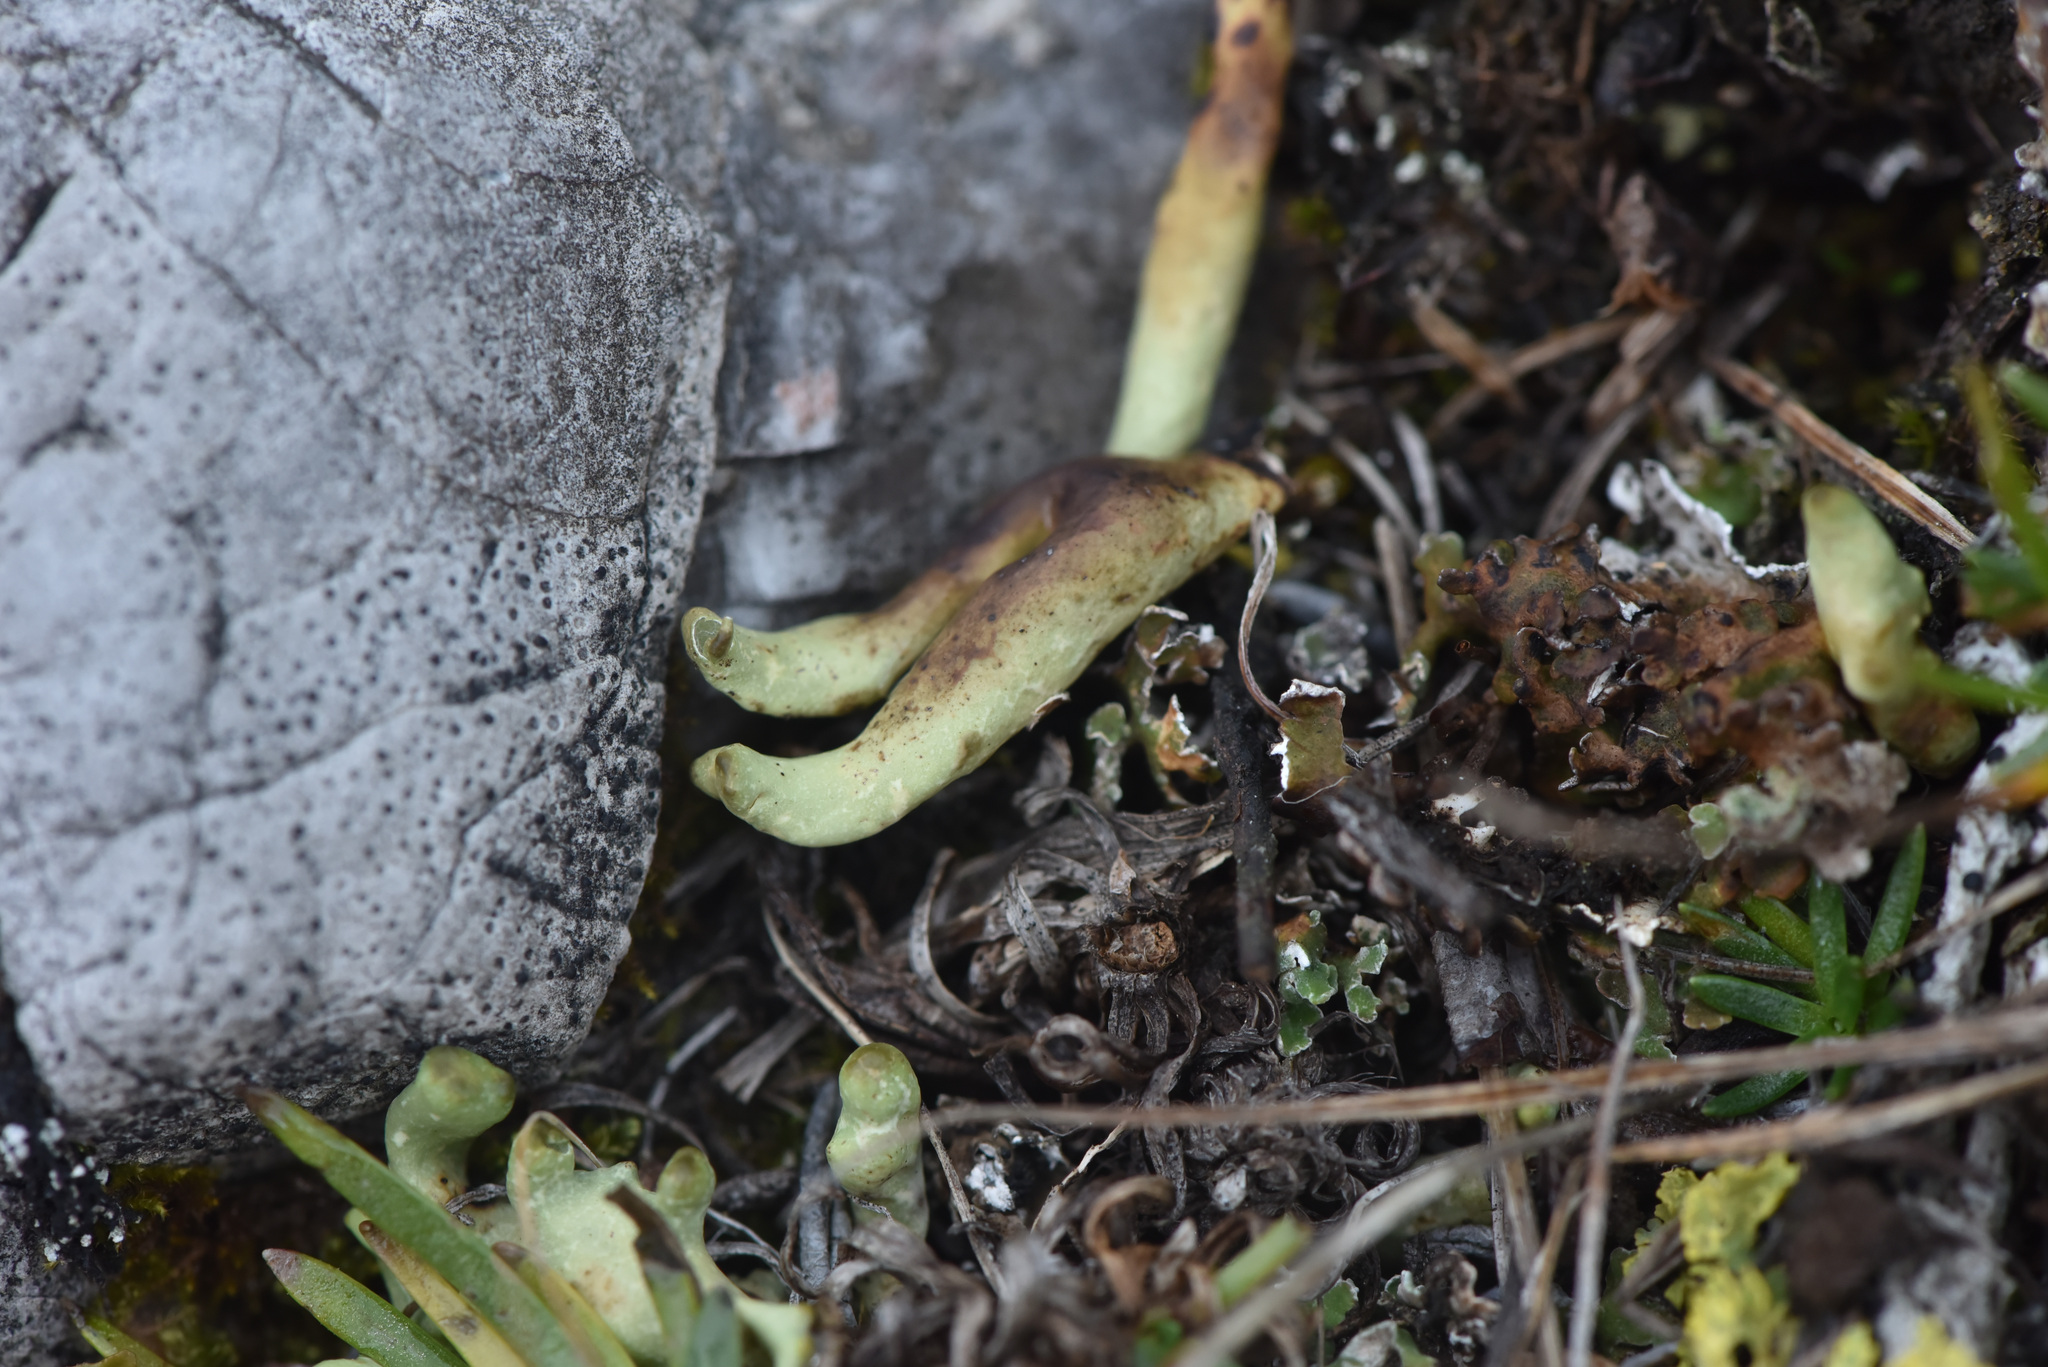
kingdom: Fungi
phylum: Ascomycota
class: Lecanoromycetes
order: Lecanorales
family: Parmeliaceae
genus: Dactylina
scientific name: Dactylina arctica
